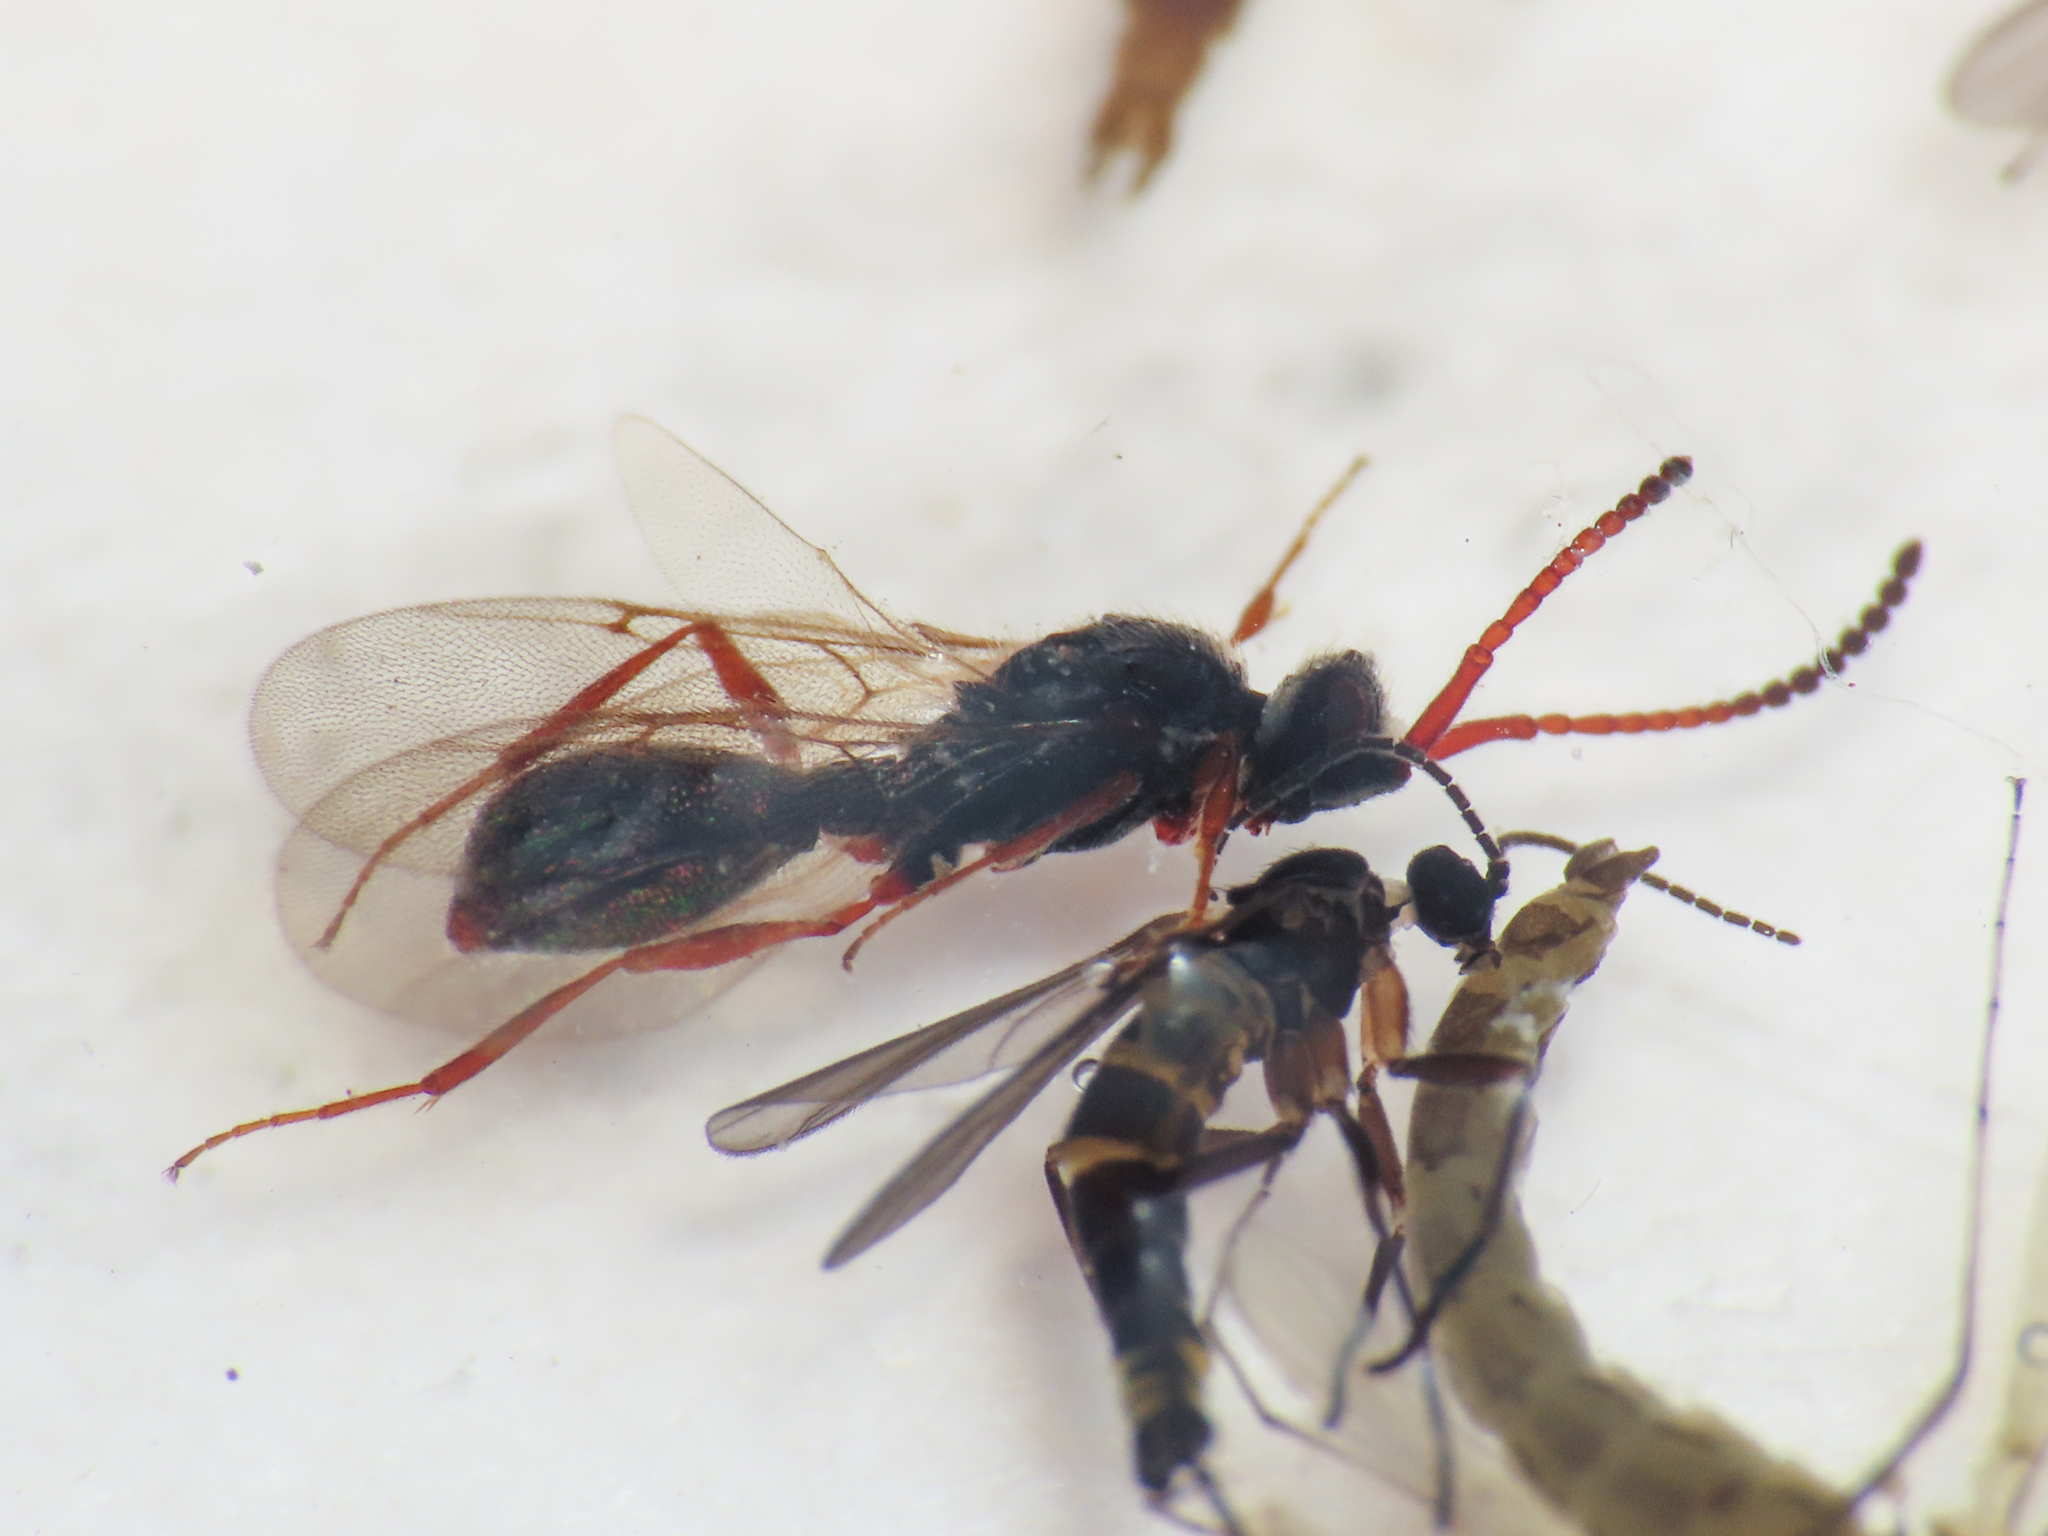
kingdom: Animalia
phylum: Arthropoda
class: Insecta
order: Hymenoptera
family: Diapriidae
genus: Lyteba
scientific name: Lyteba canaliculata
